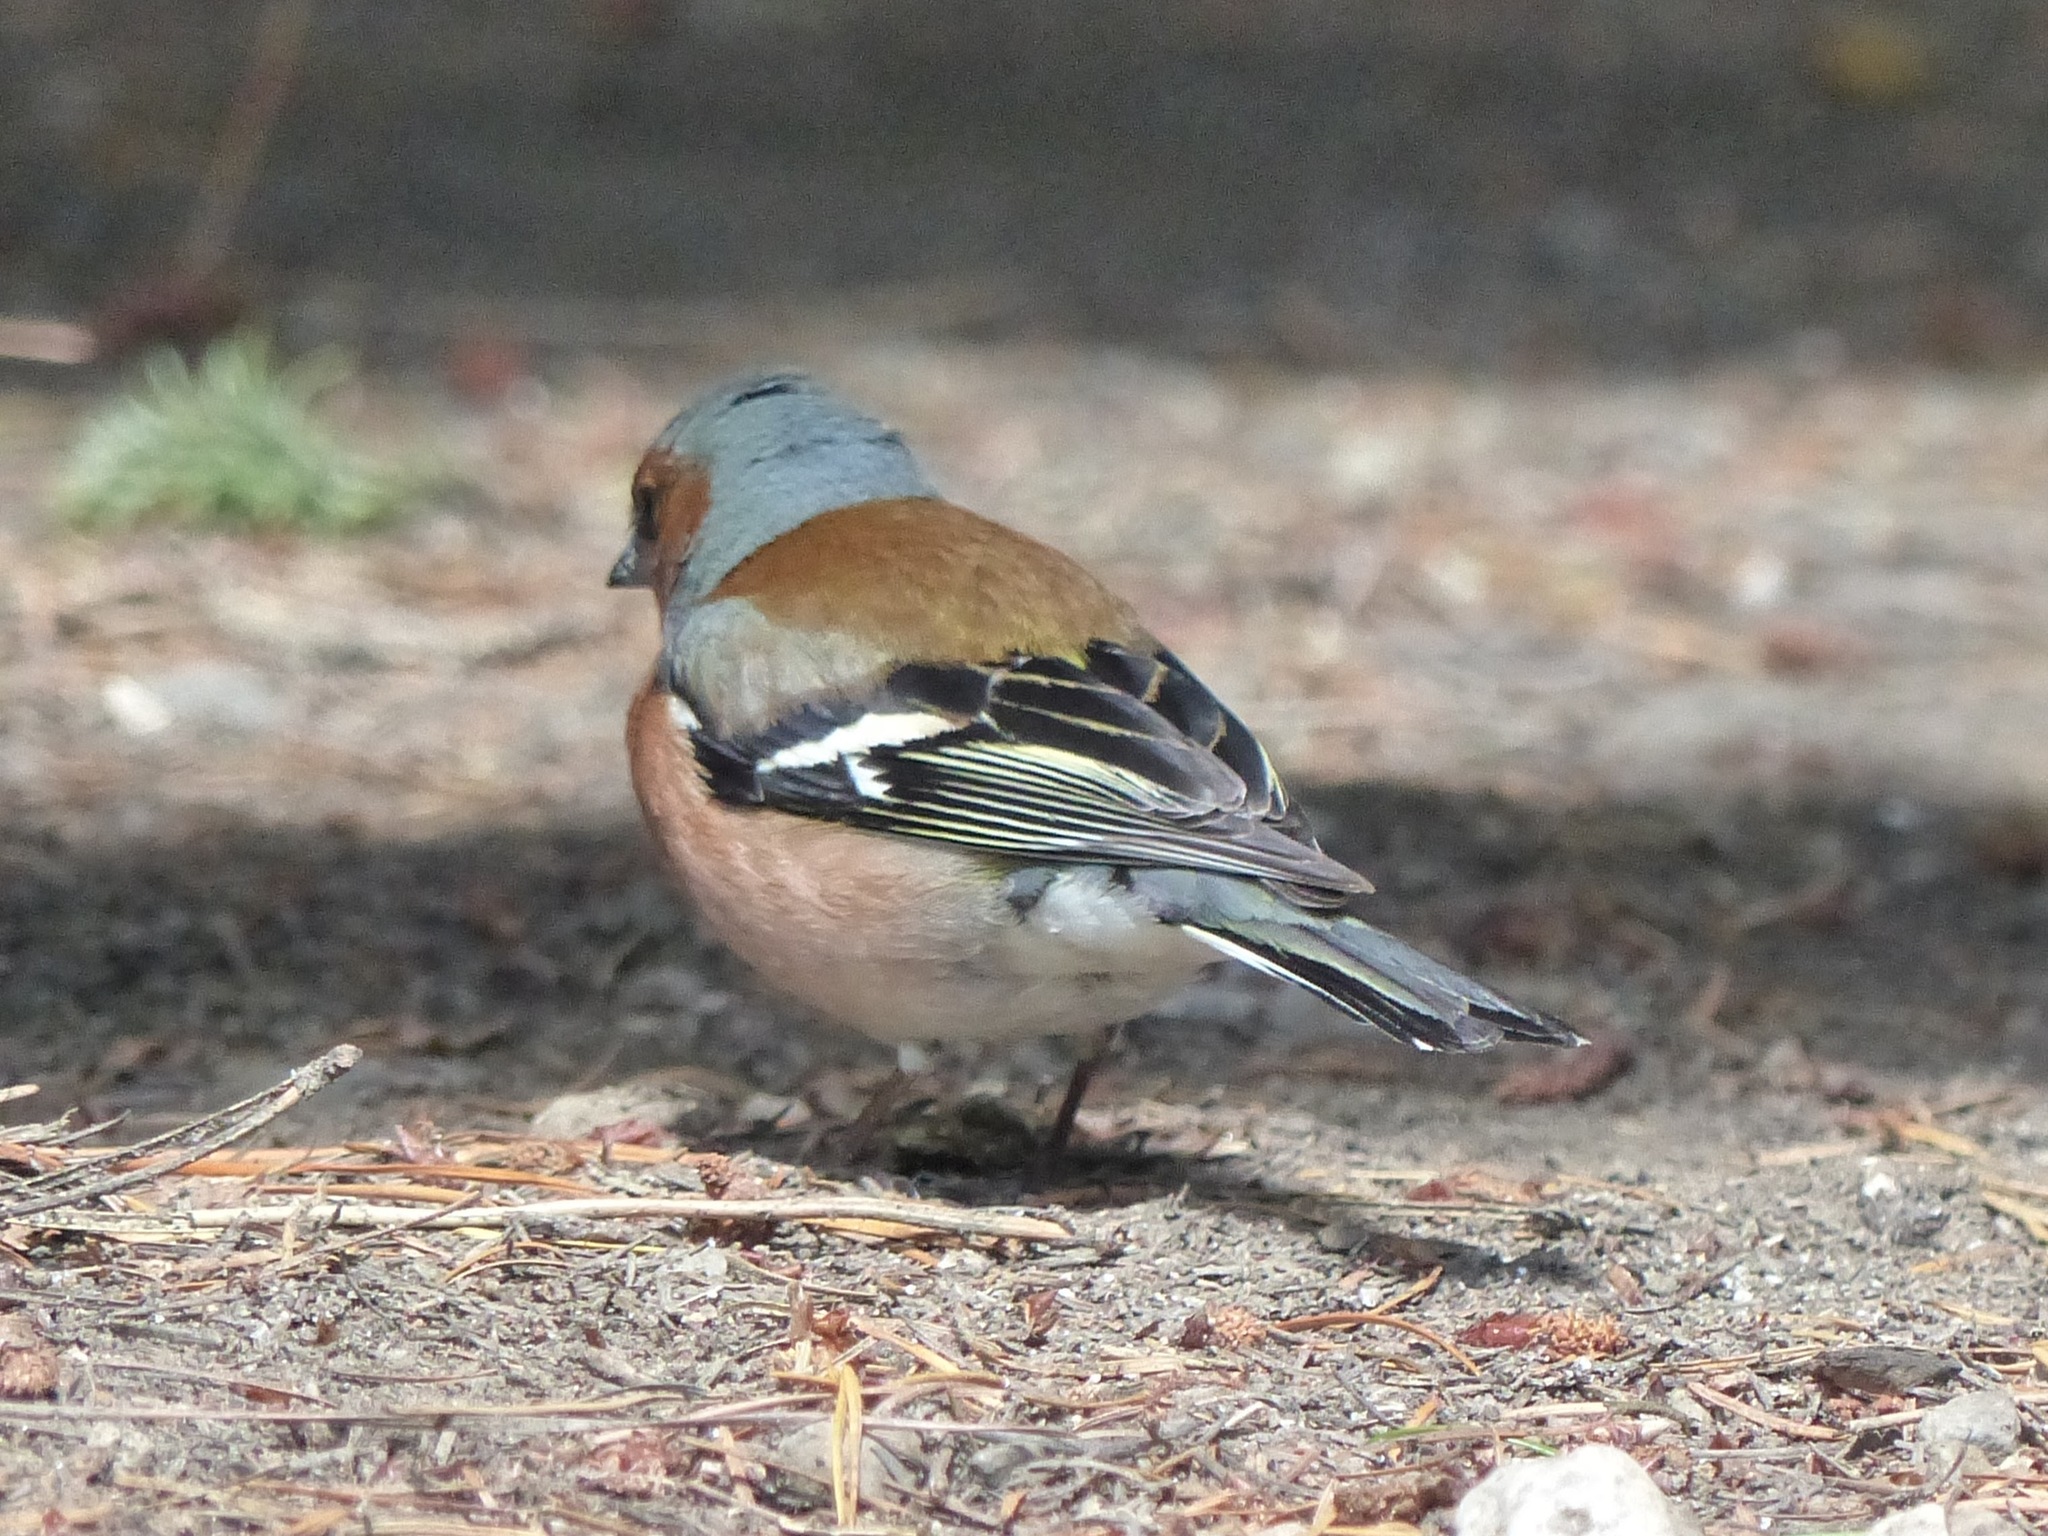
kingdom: Animalia
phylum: Chordata
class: Aves
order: Passeriformes
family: Fringillidae
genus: Fringilla
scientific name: Fringilla coelebs
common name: Common chaffinch
